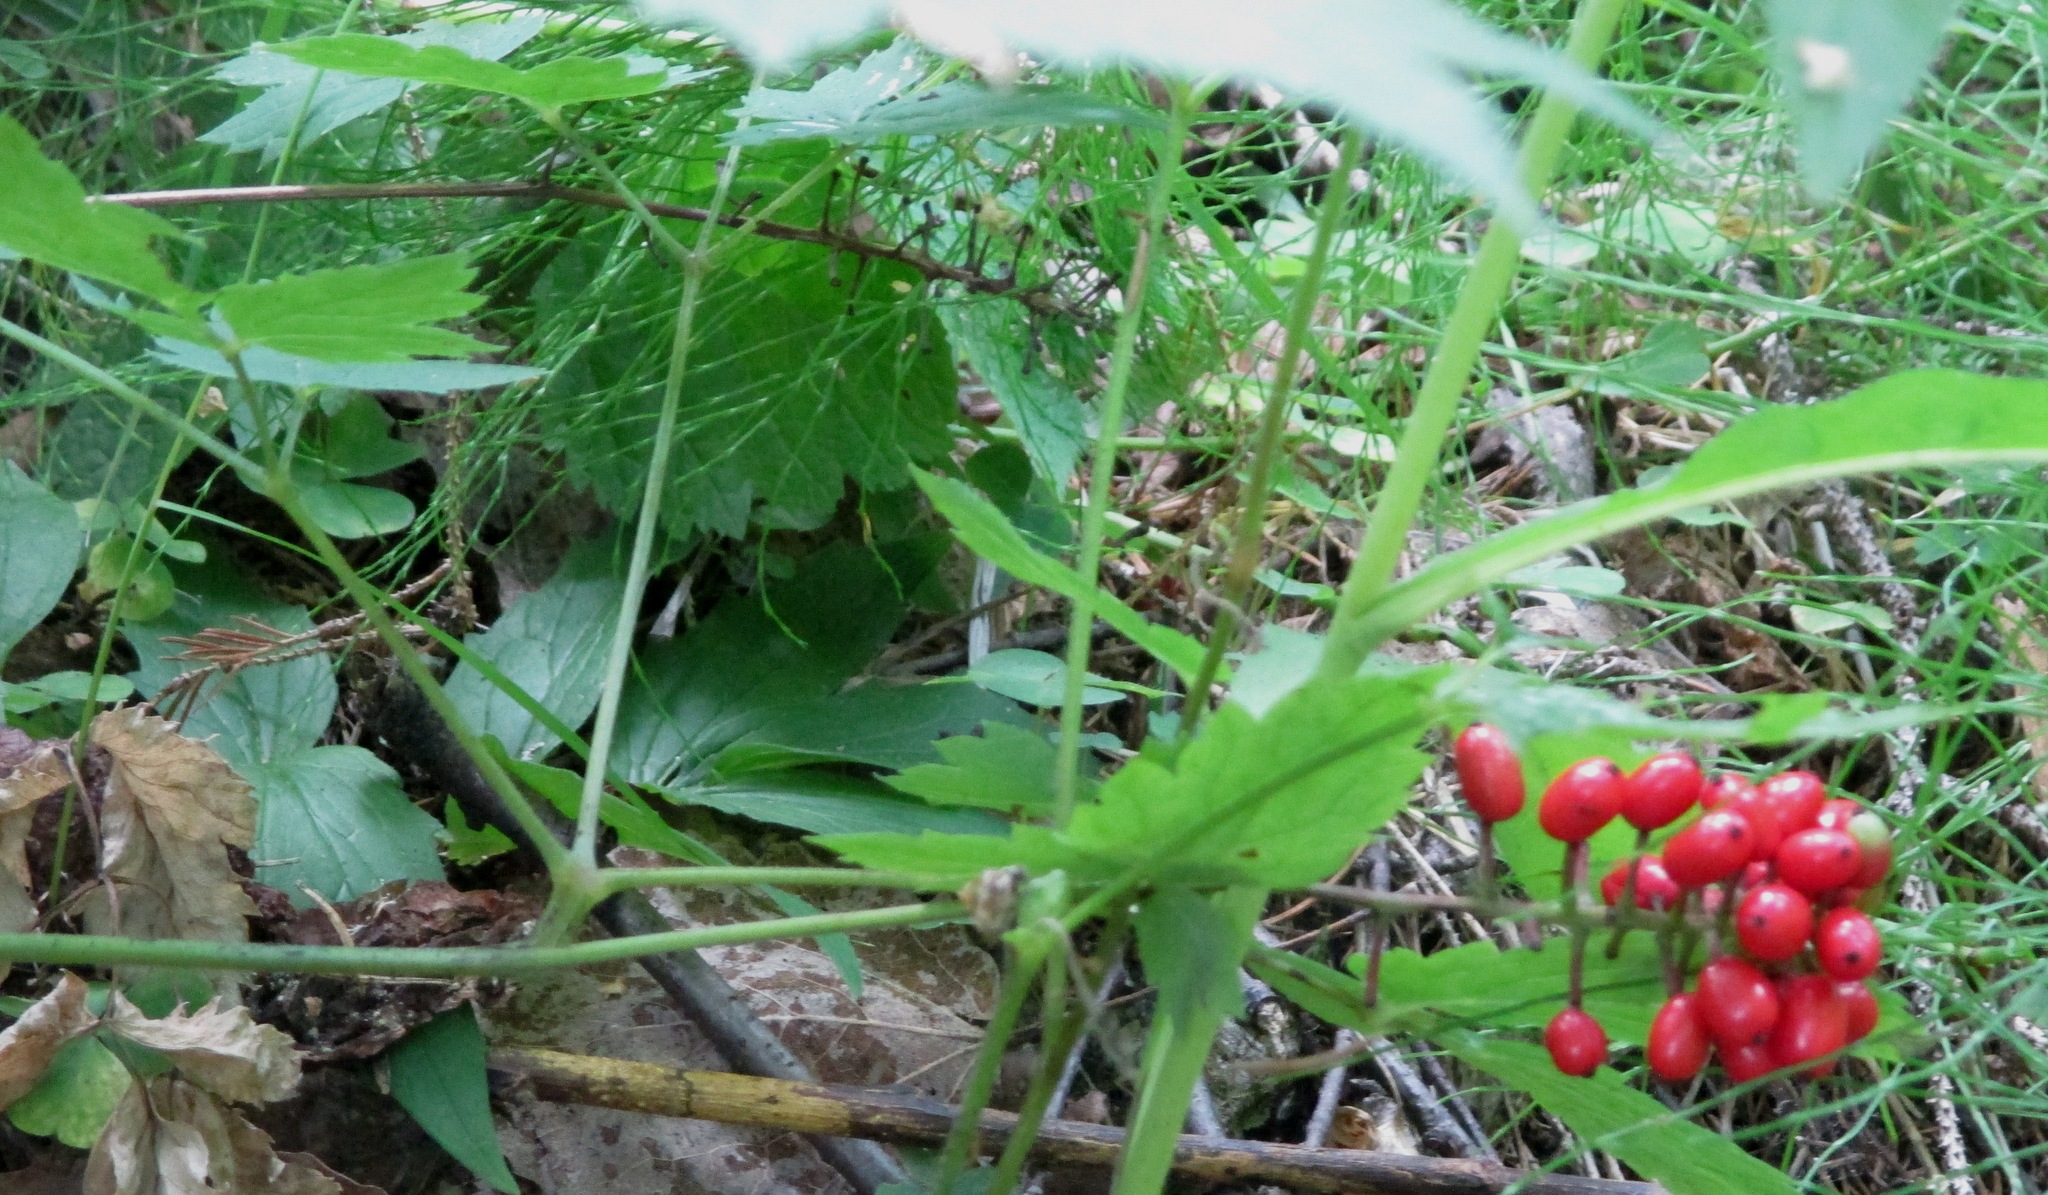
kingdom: Plantae
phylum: Tracheophyta
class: Magnoliopsida
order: Ranunculales
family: Ranunculaceae
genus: Actaea
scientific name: Actaea erythrocarpa
